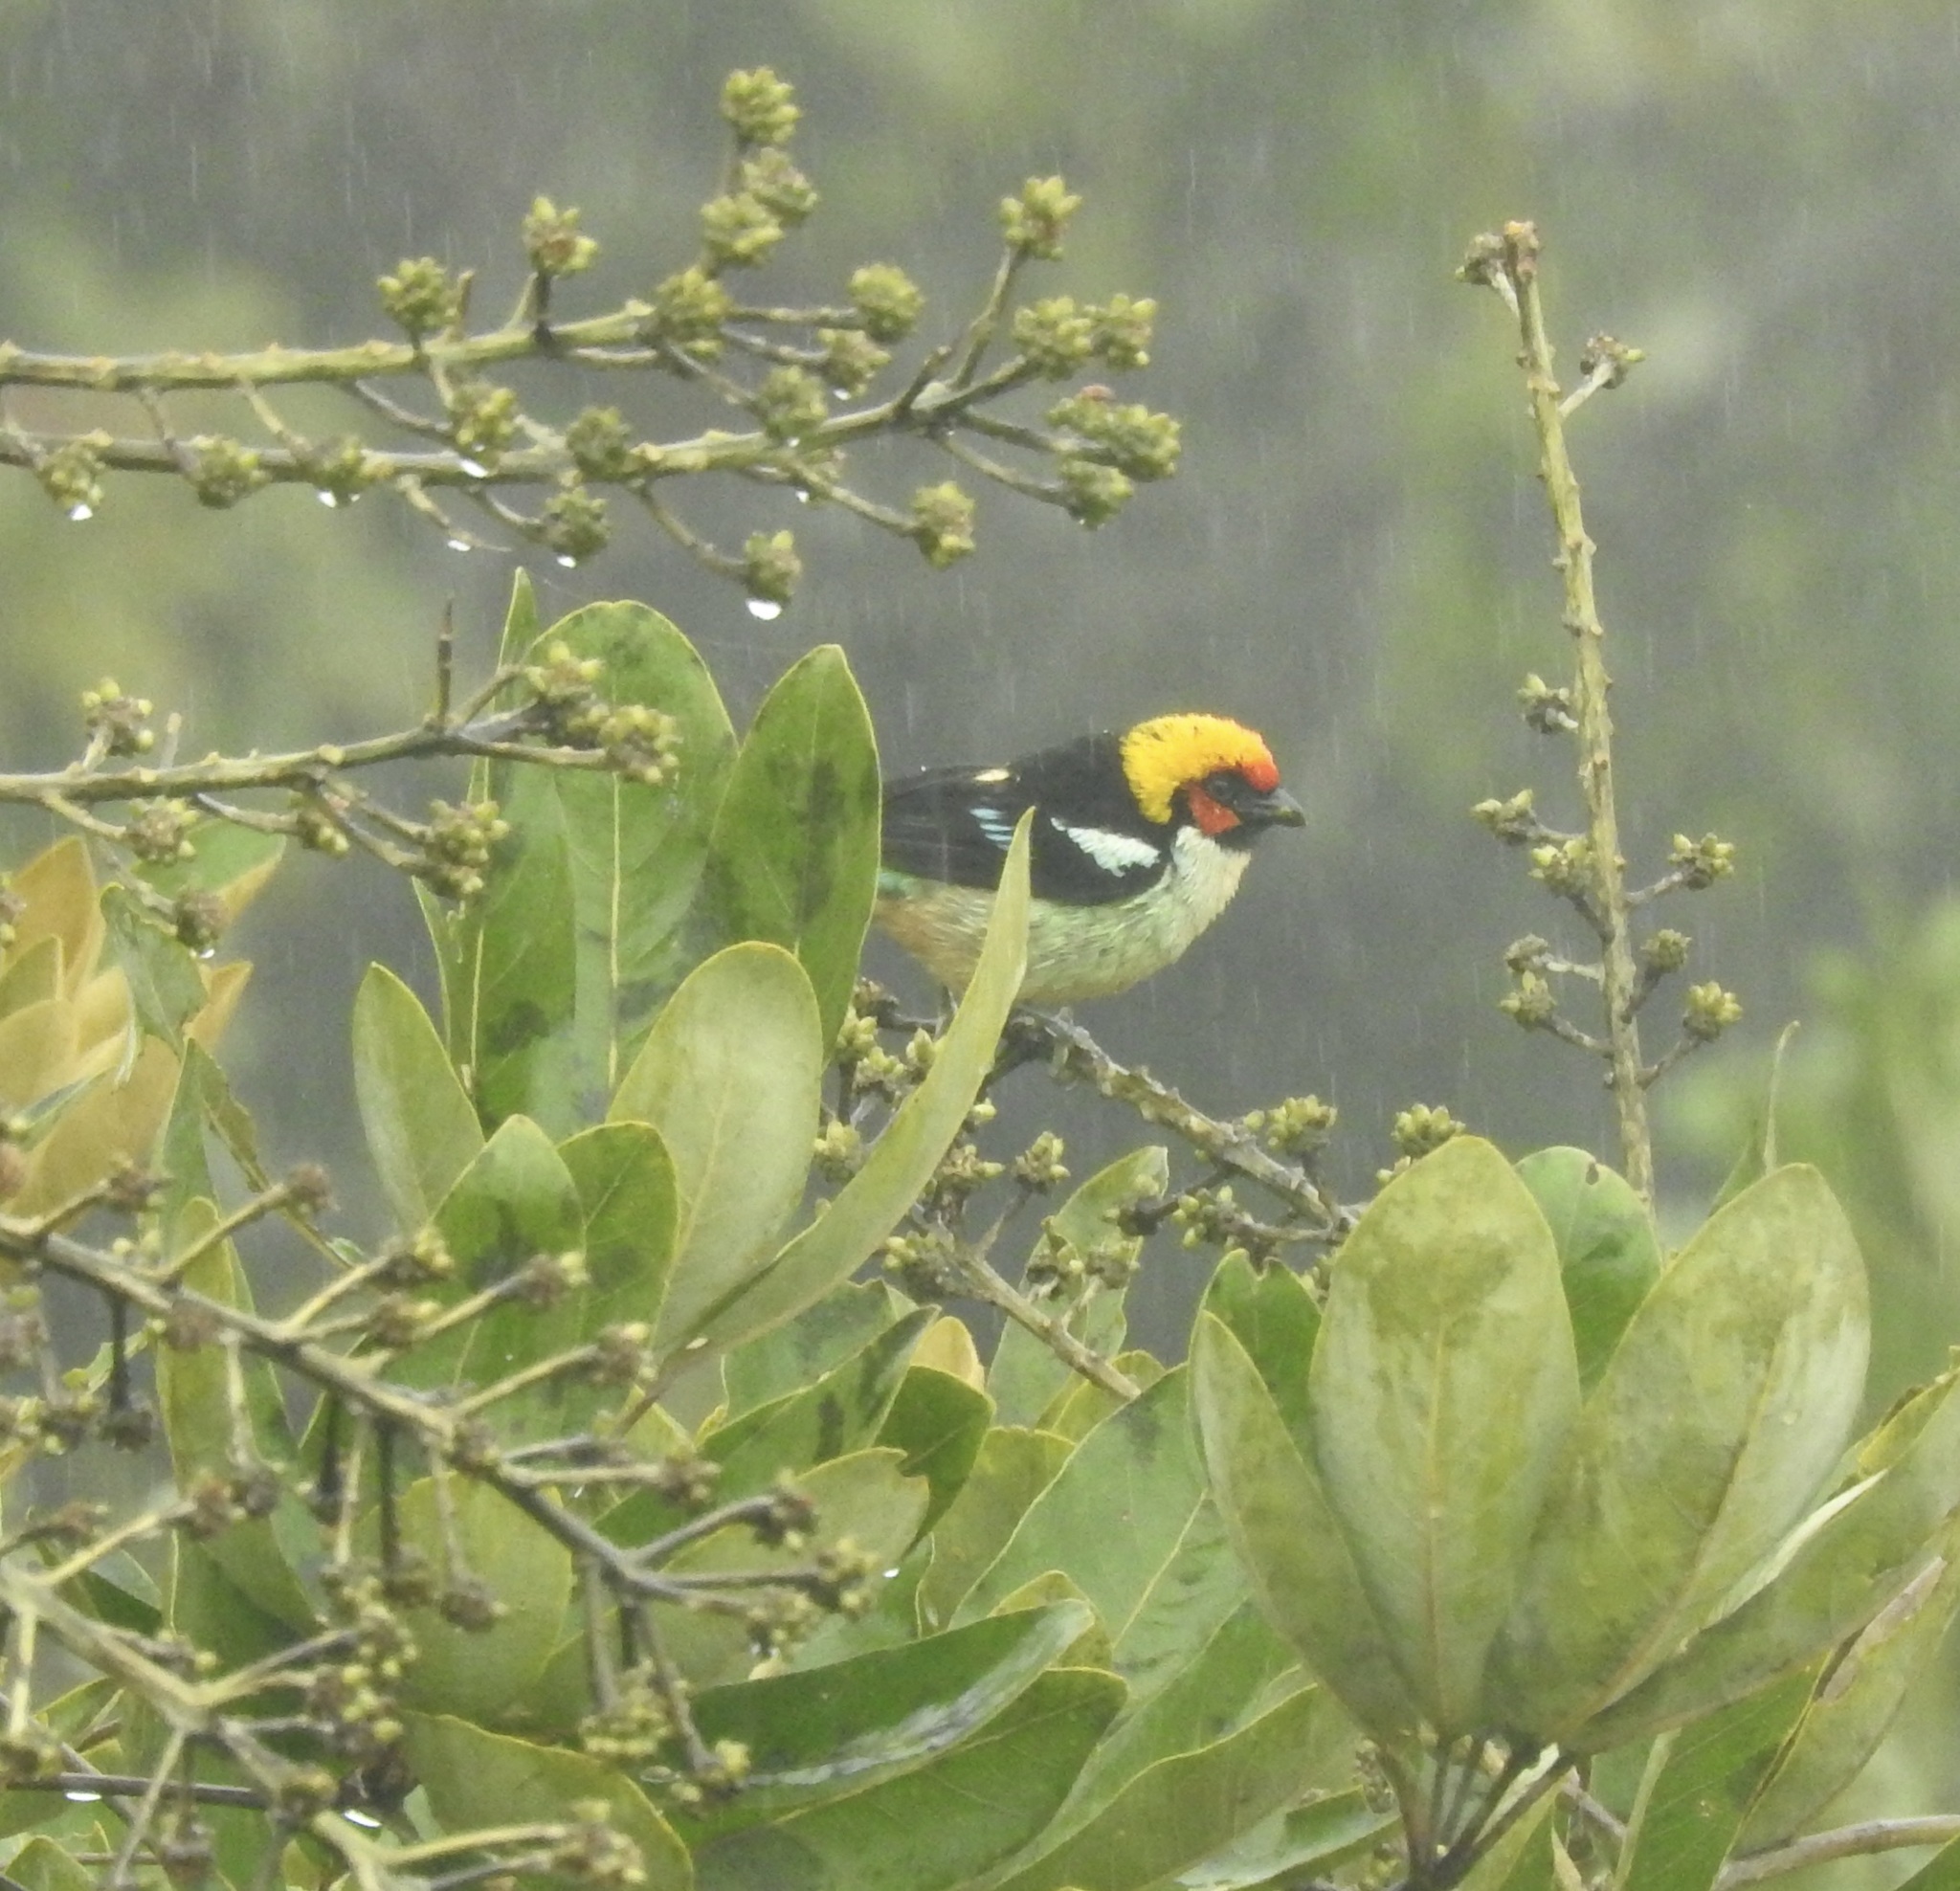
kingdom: Animalia
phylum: Chordata
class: Aves
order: Passeriformes
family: Thraupidae
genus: Tangara
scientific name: Tangara parzudakii
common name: Flame-faced tanager
